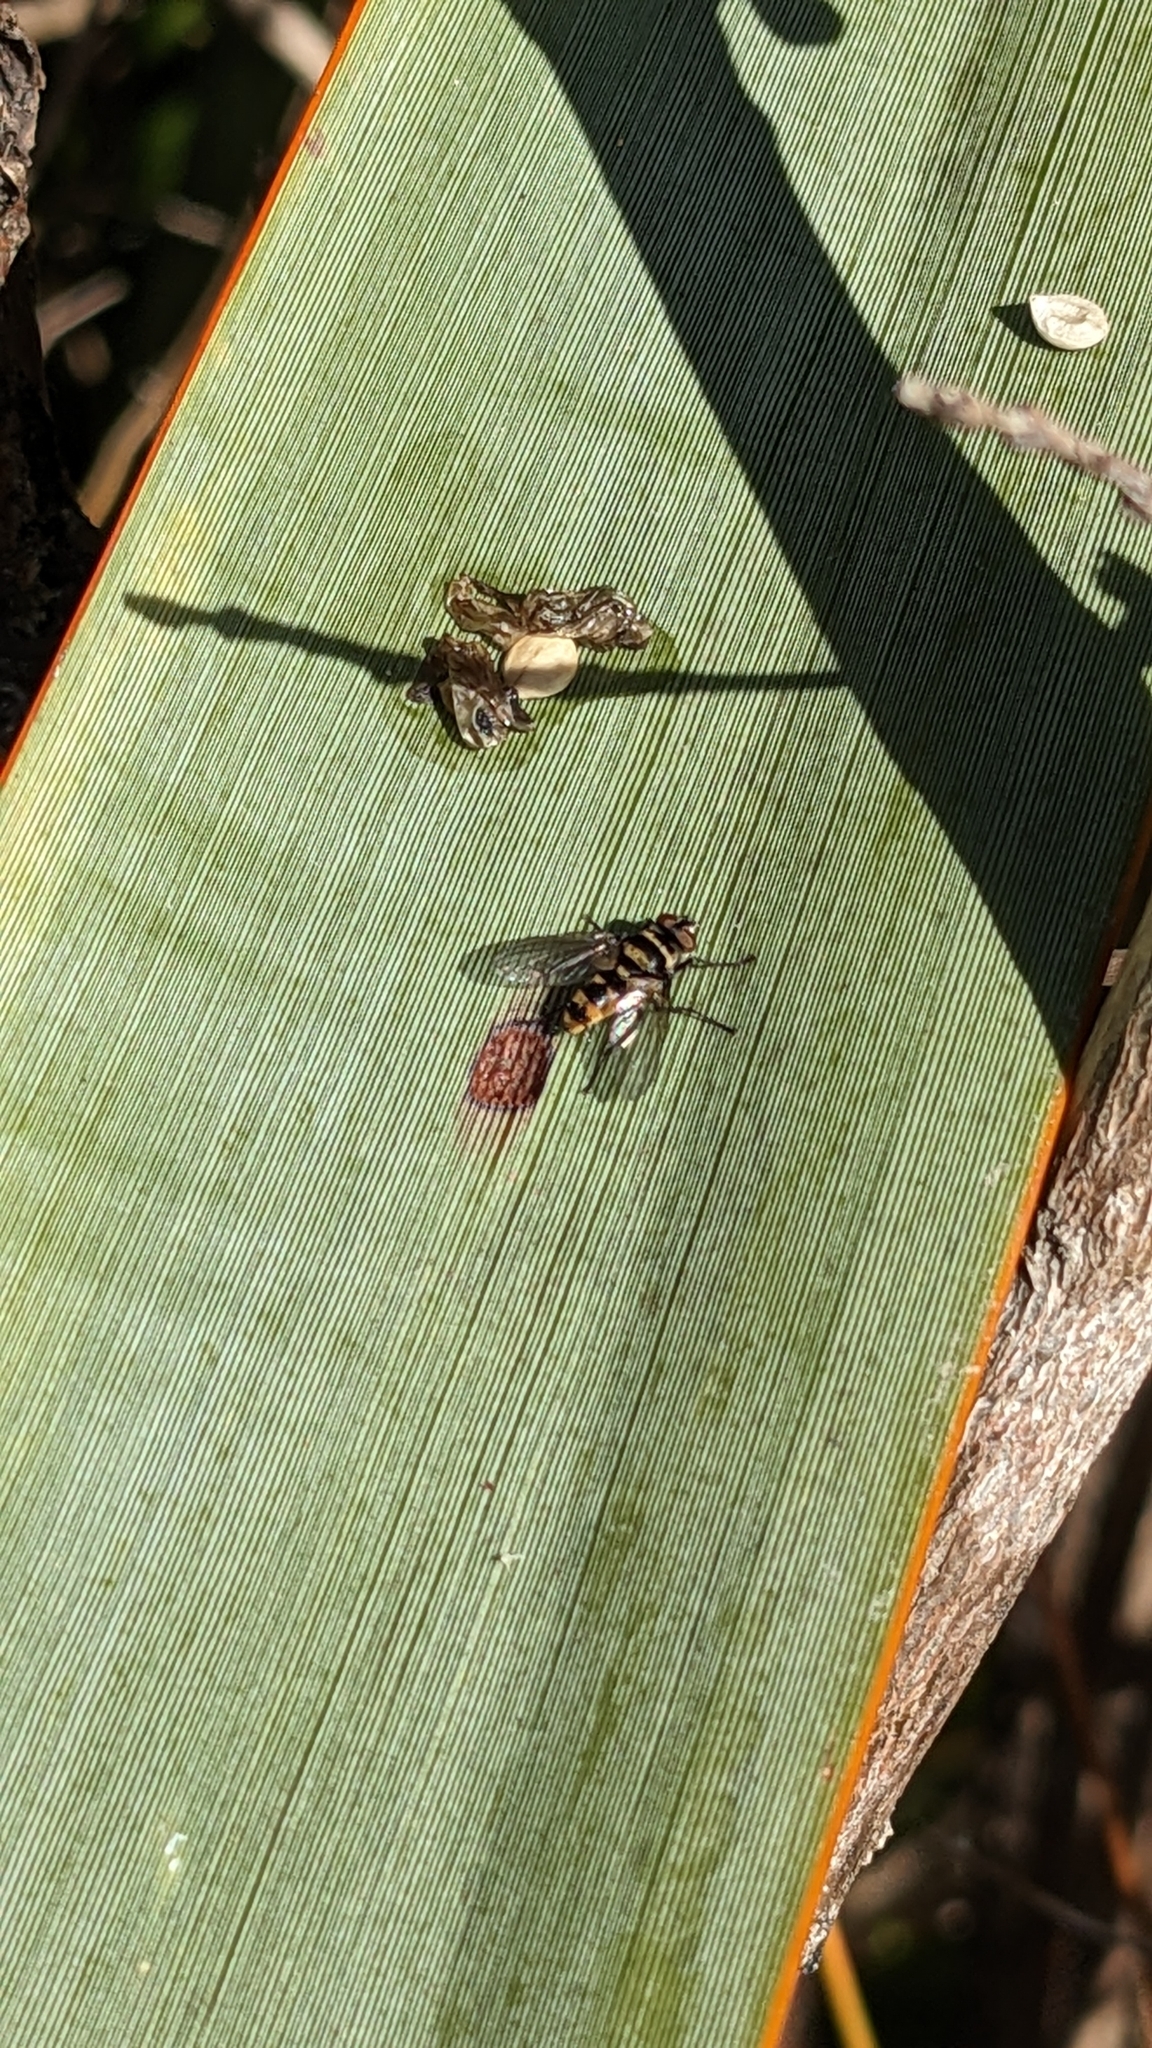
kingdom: Animalia
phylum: Arthropoda
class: Insecta
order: Diptera
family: Tachinidae
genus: Trigonospila
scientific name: Trigonospila brevifacies
